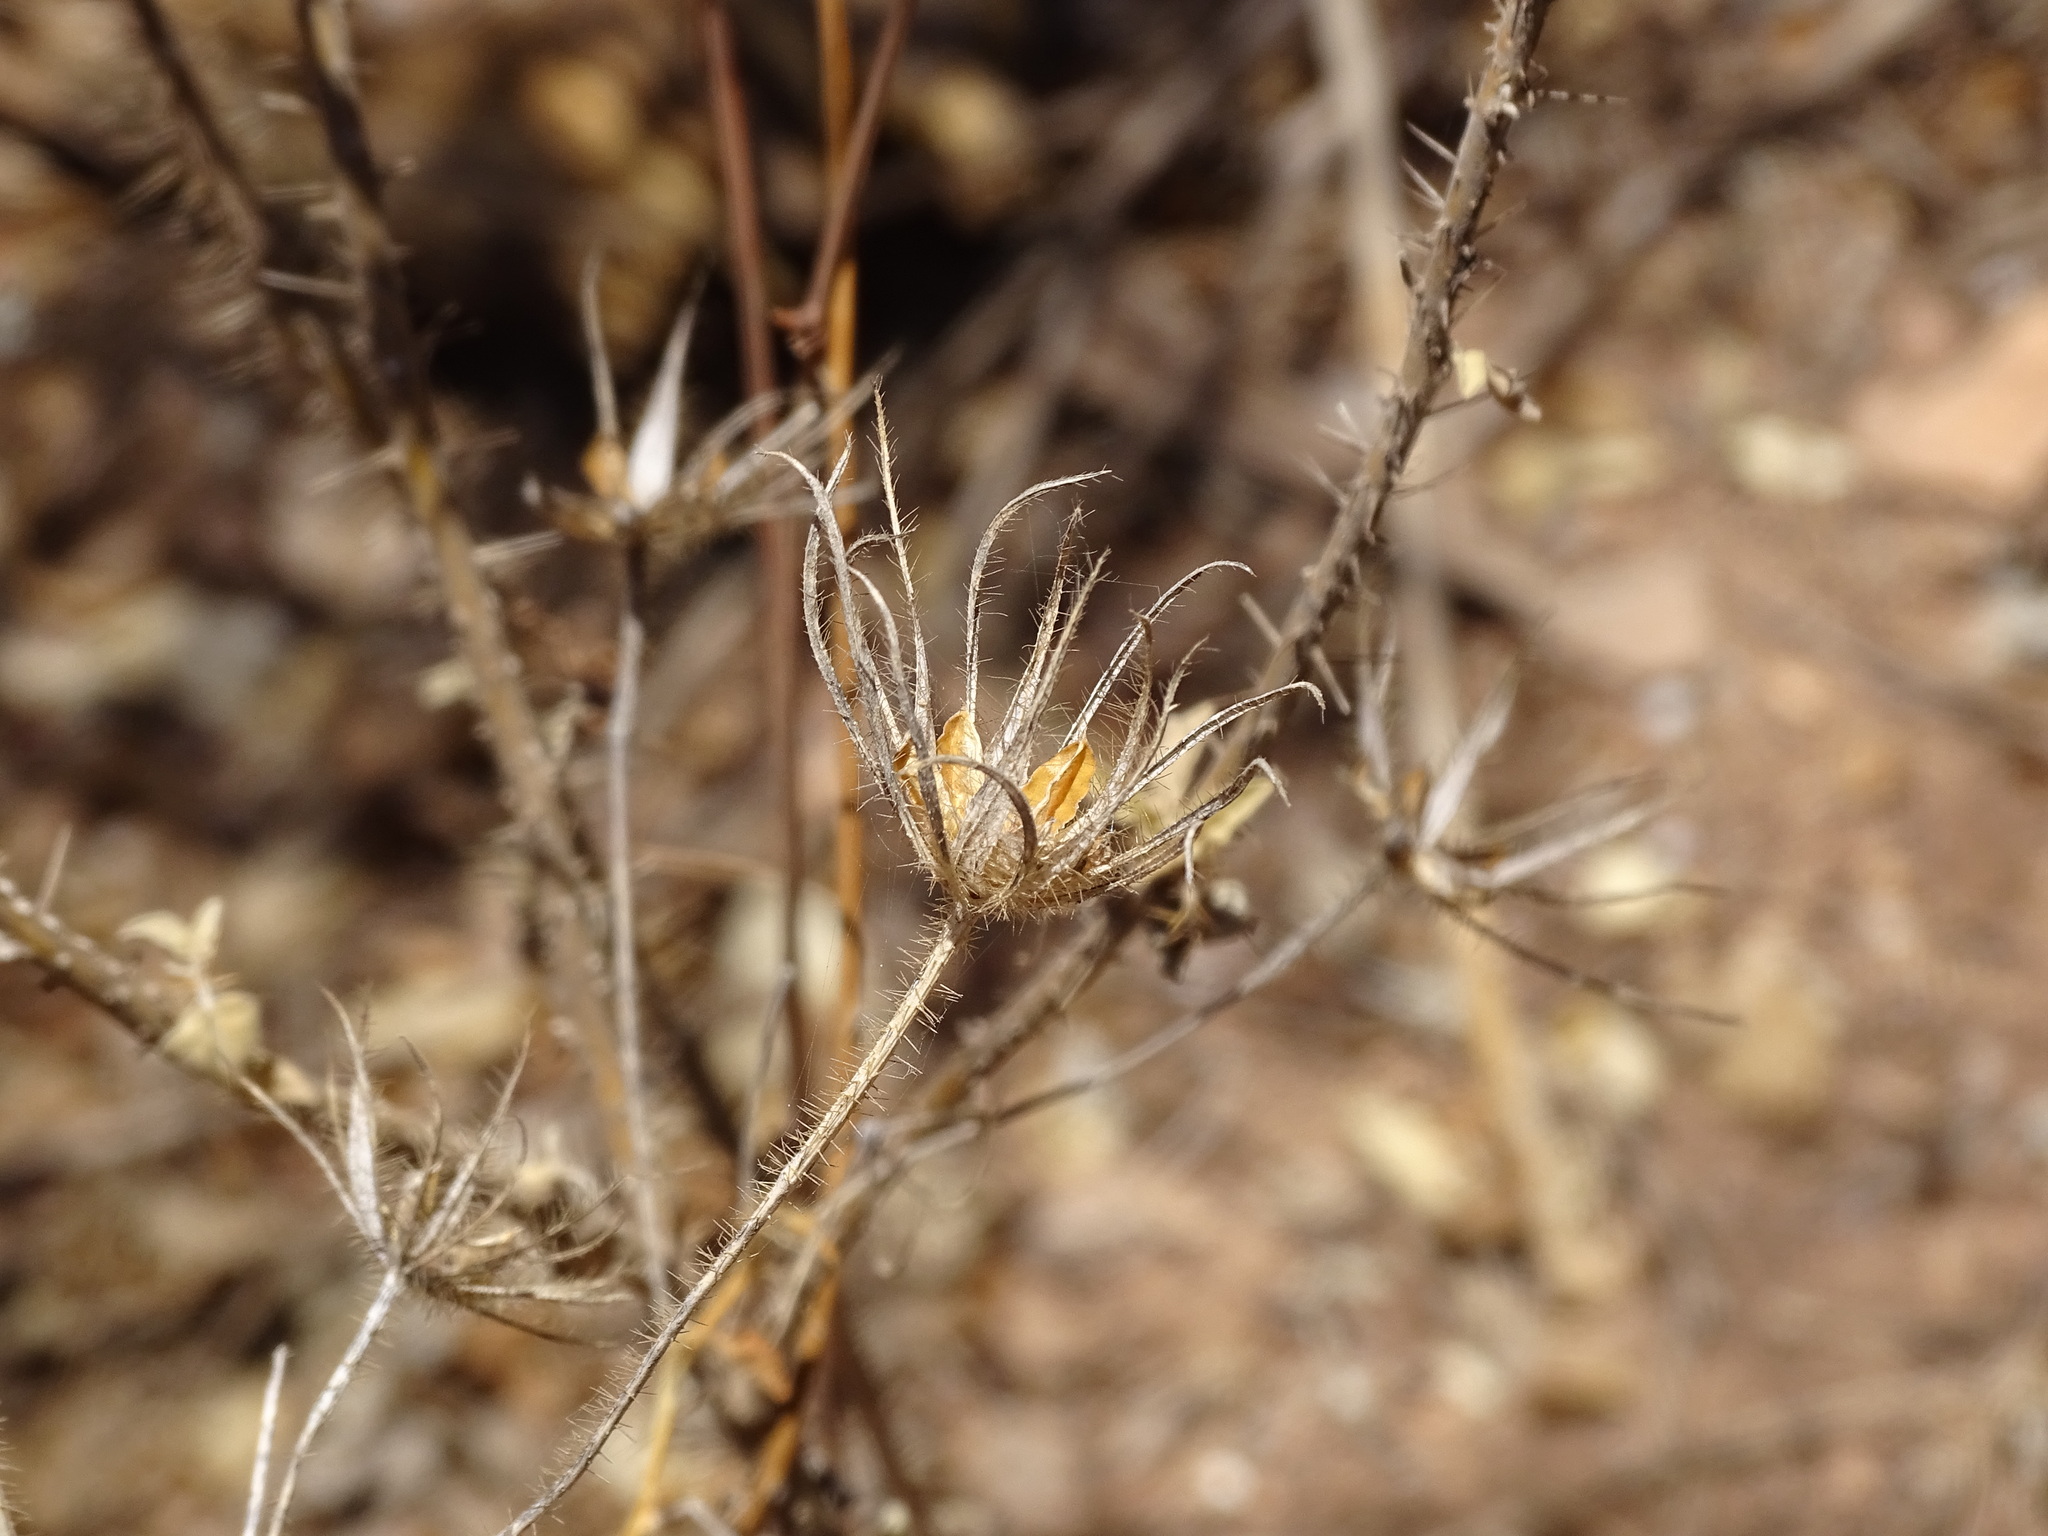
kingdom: Plantae
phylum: Tracheophyta
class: Magnoliopsida
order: Malvales
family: Malvaceae
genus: Hibiscus
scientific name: Hibiscus biseptus
